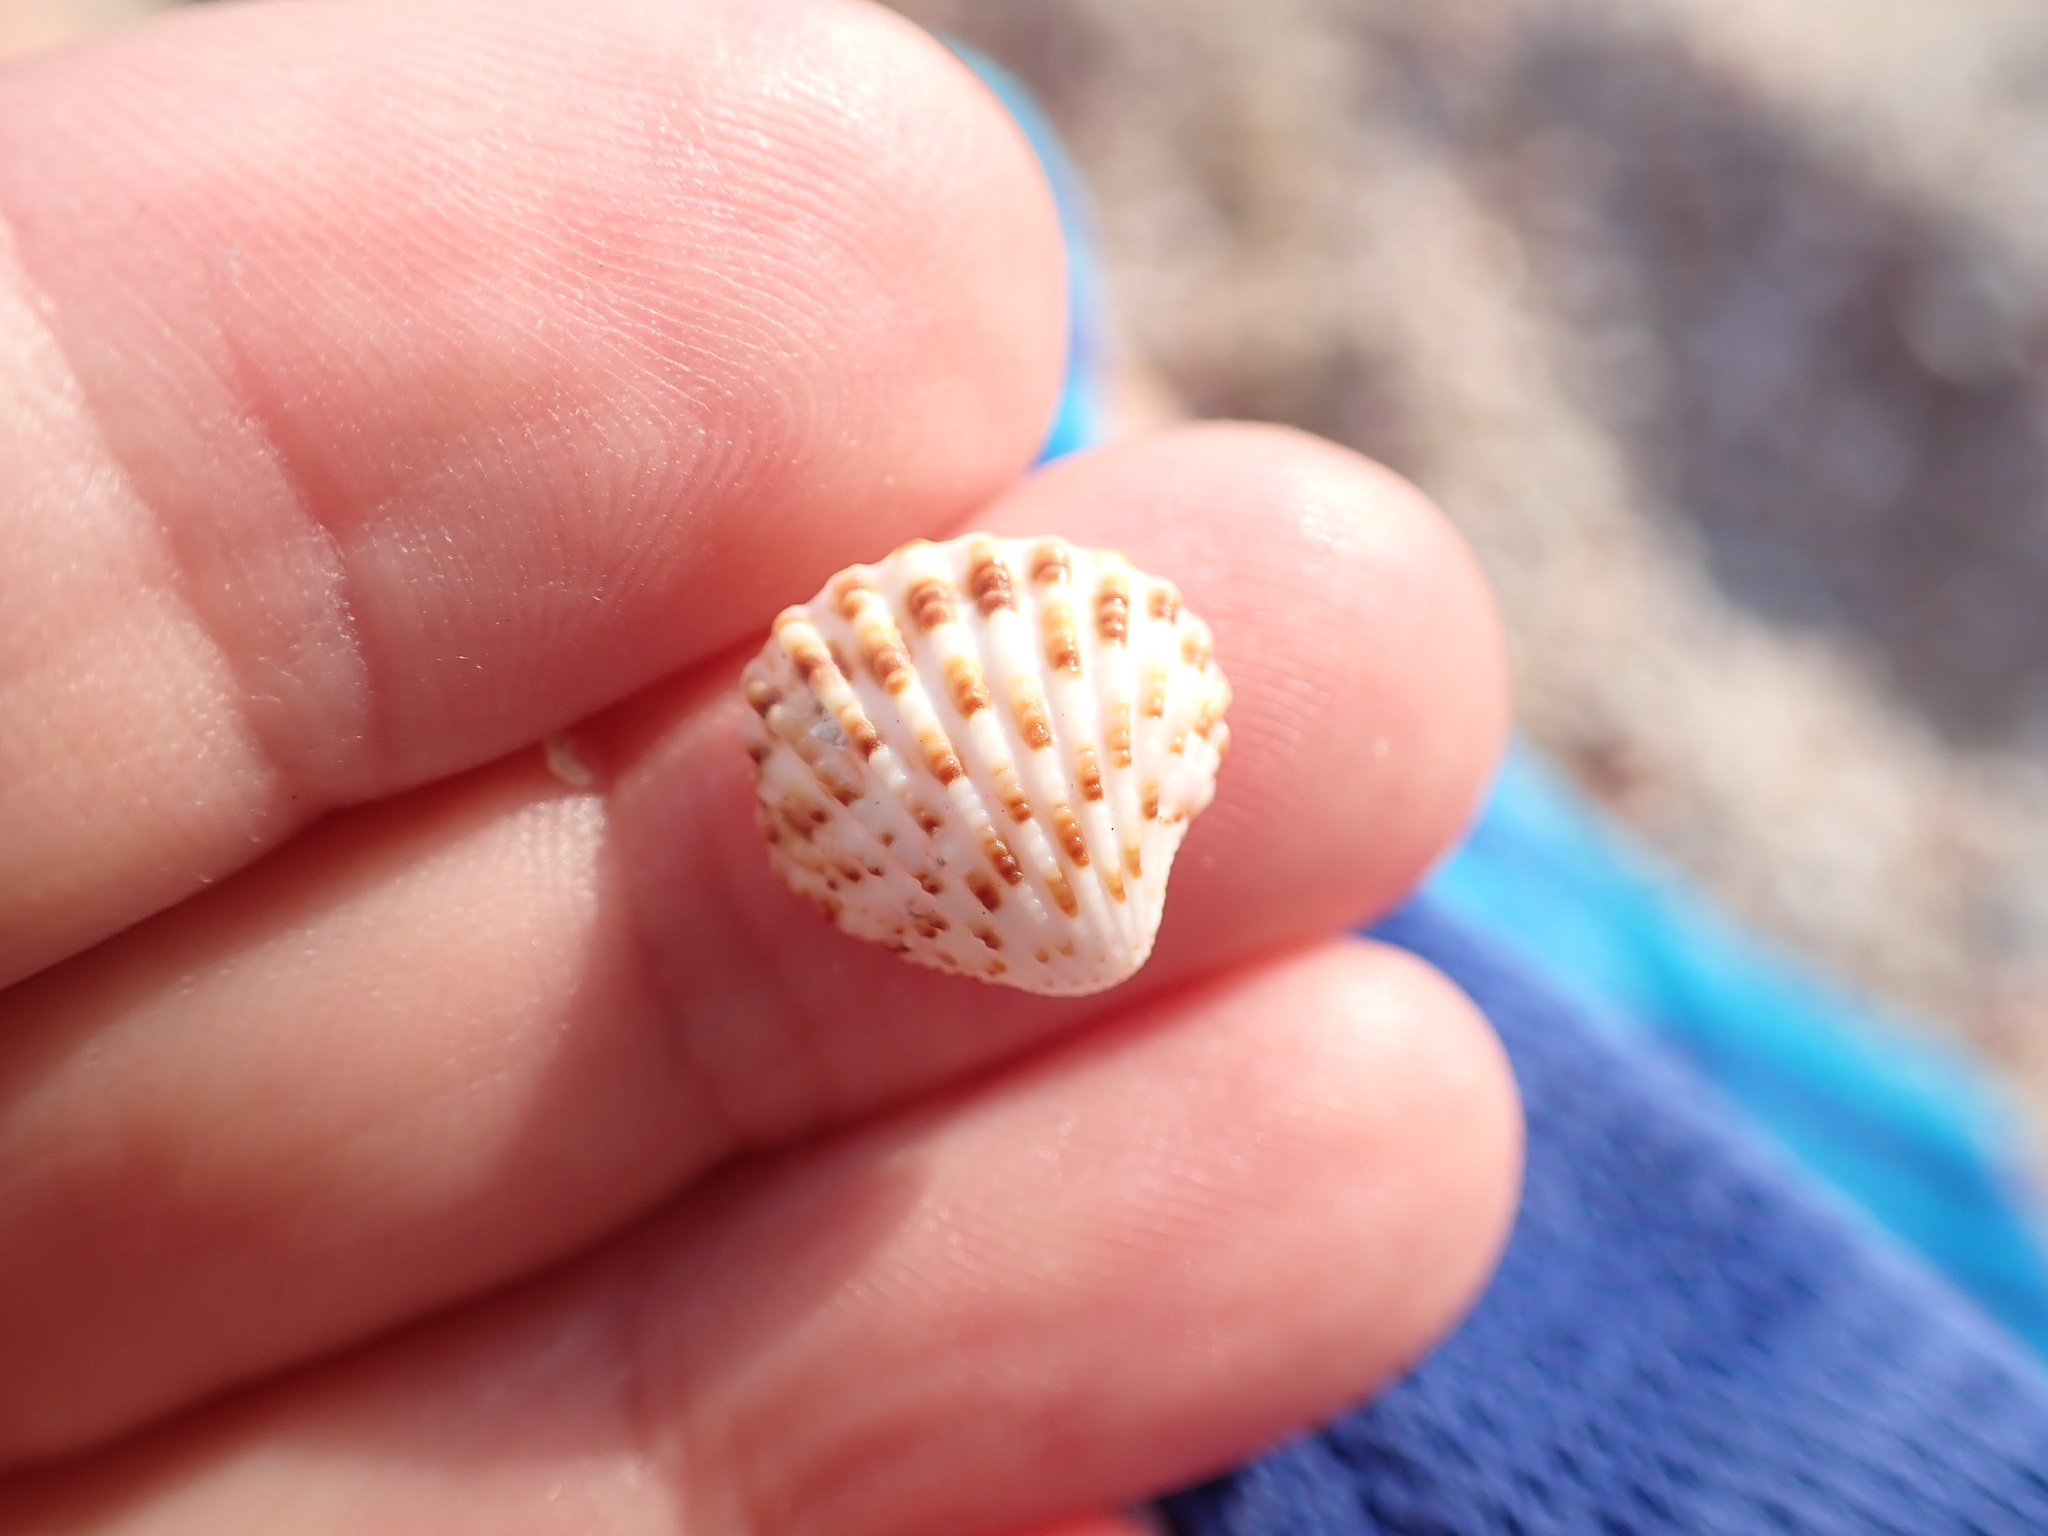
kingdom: Animalia
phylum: Mollusca
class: Bivalvia
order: Carditida
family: Carditidae
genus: Cardites
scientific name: Cardites antiquatus
